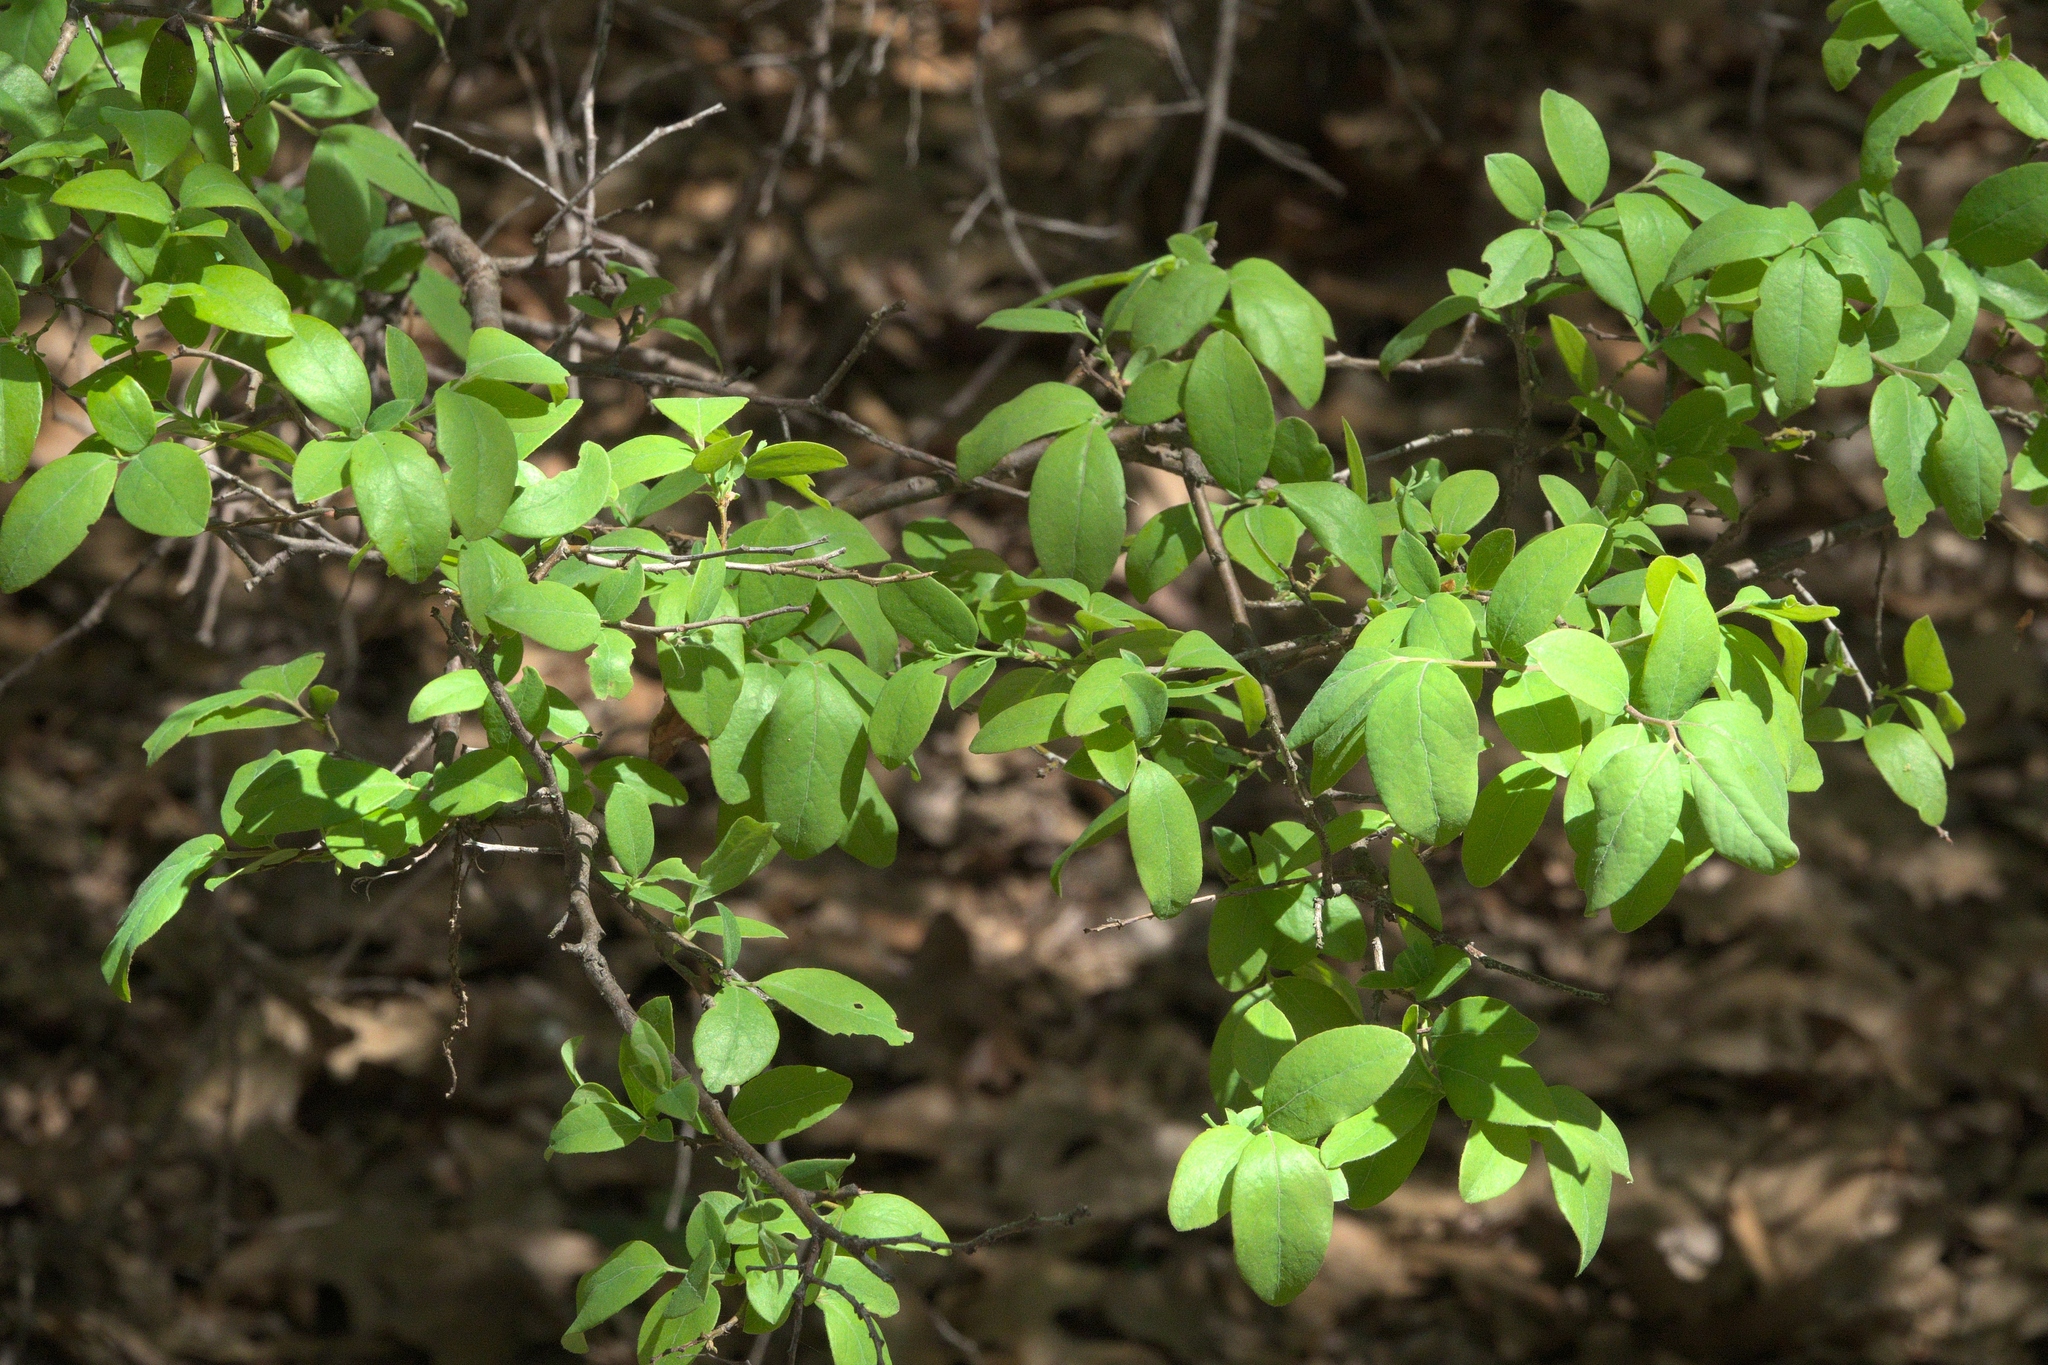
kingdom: Plantae
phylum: Tracheophyta
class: Magnoliopsida
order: Ericales
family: Ericaceae
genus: Vaccinium
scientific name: Vaccinium arboreum
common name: Farkleberry
